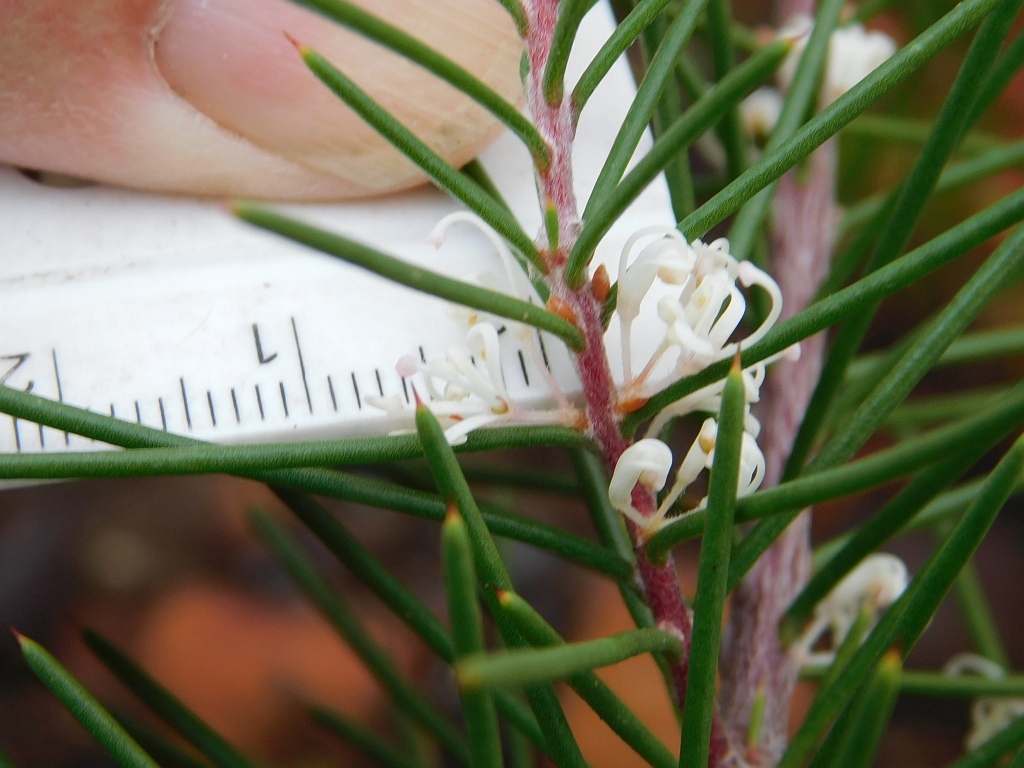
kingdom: Plantae
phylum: Tracheophyta
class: Magnoliopsida
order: Proteales
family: Proteaceae
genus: Hakea
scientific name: Hakea sericea
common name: Needle bush
